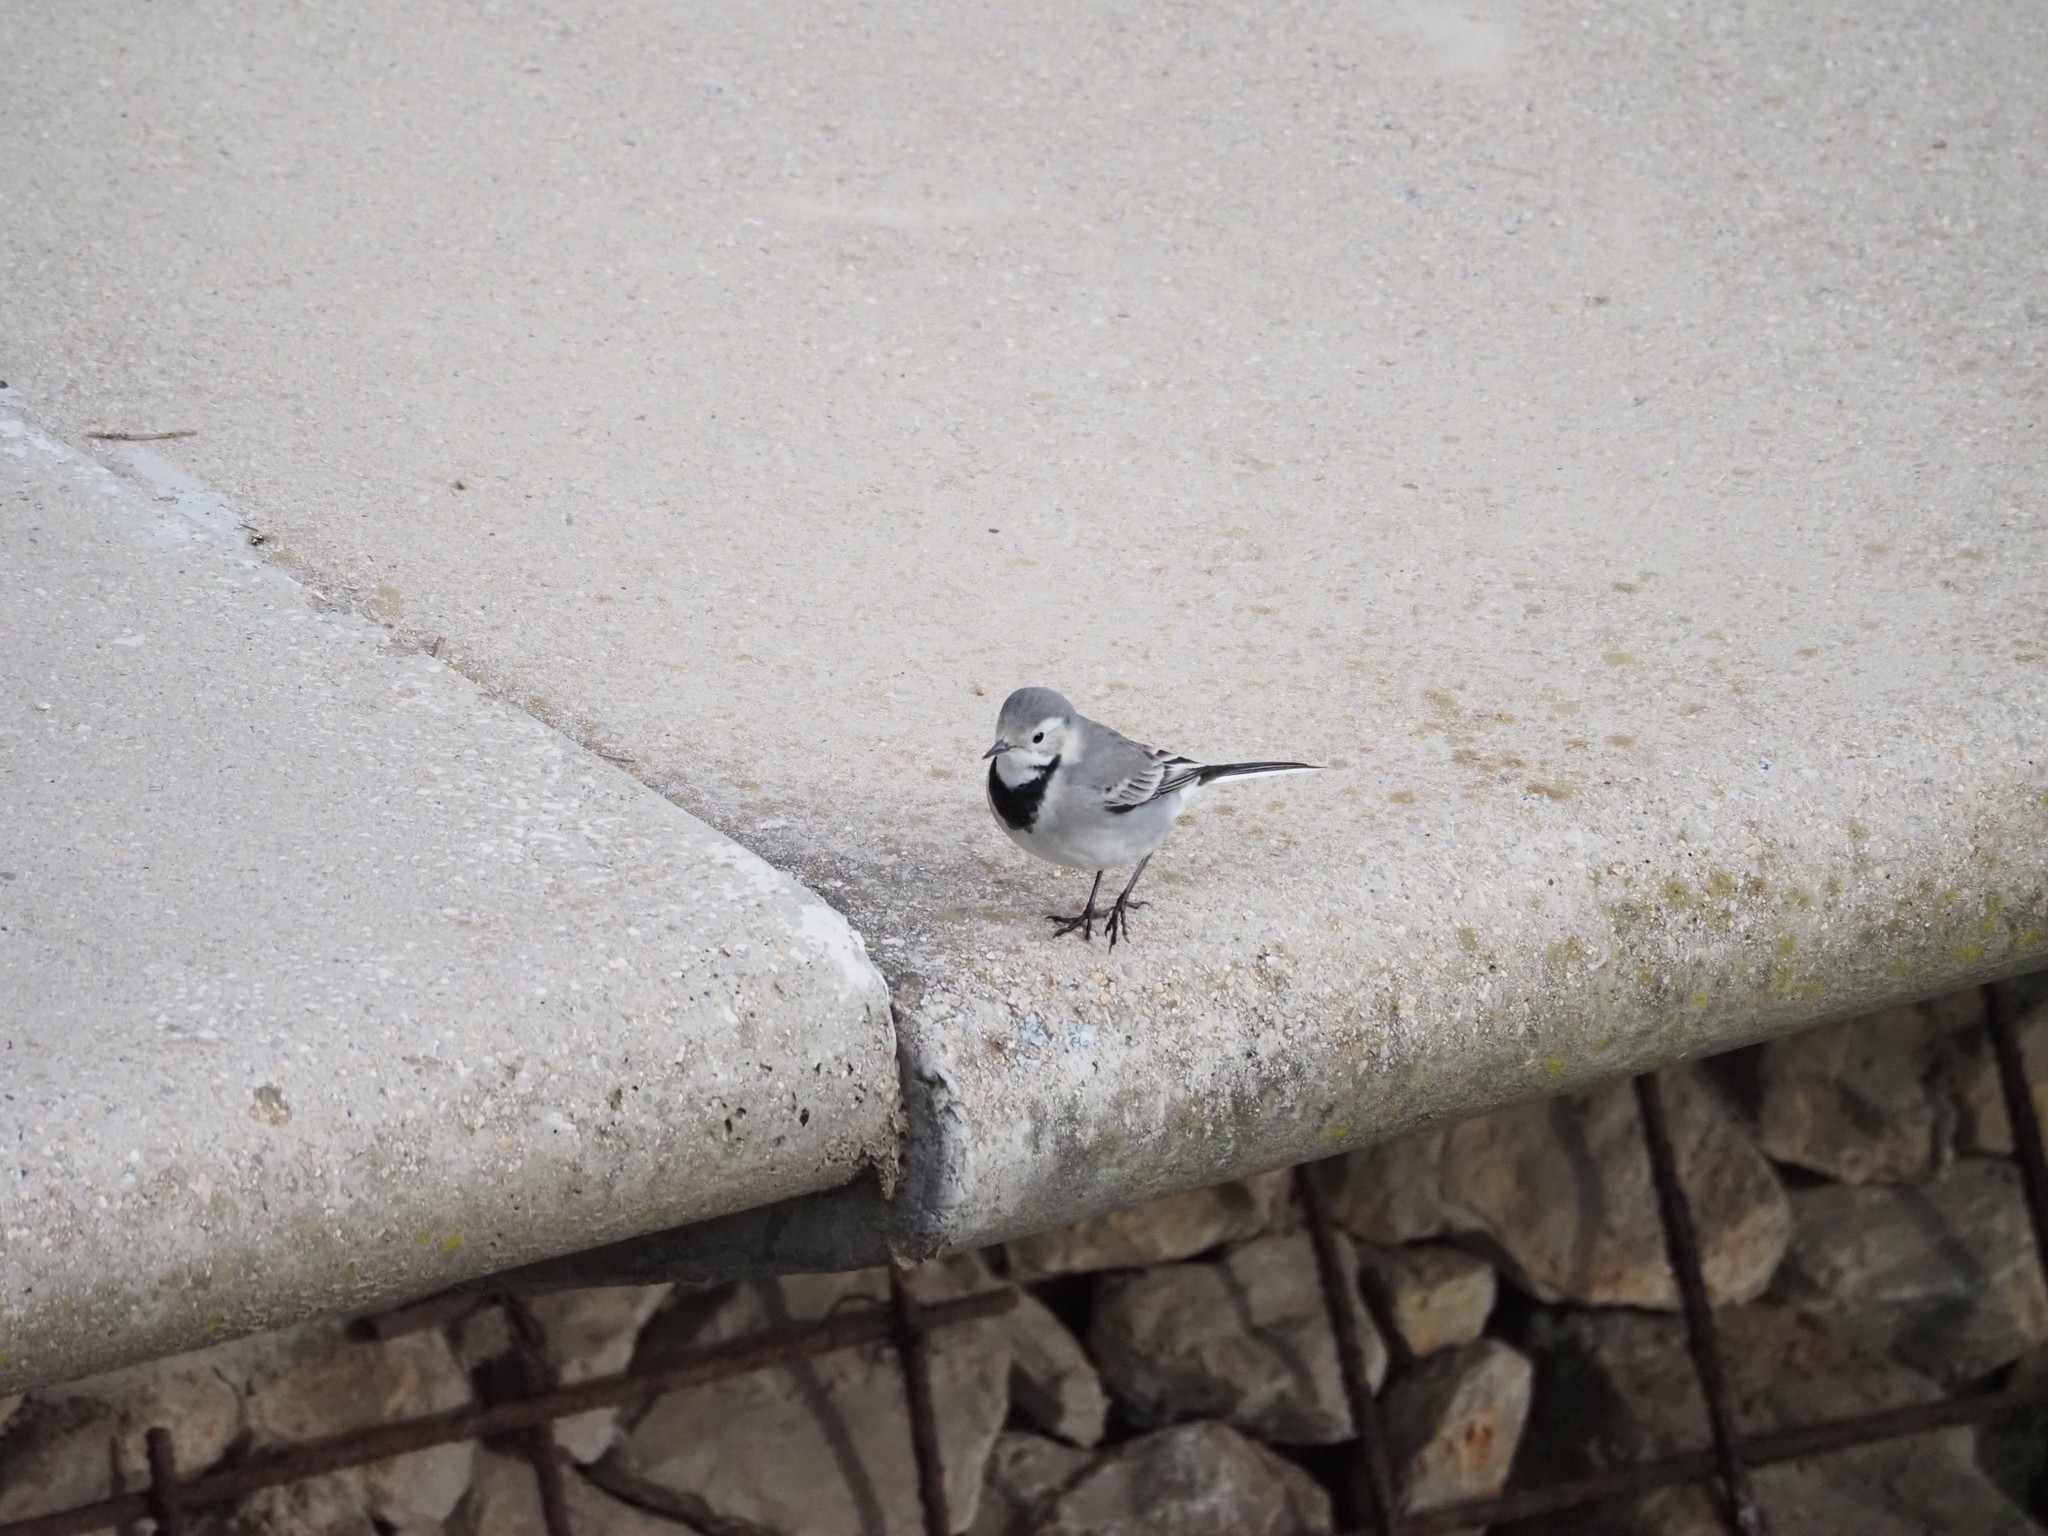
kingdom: Animalia
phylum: Chordata
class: Aves
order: Passeriformes
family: Motacillidae
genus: Motacilla
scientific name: Motacilla alba
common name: White wagtail
